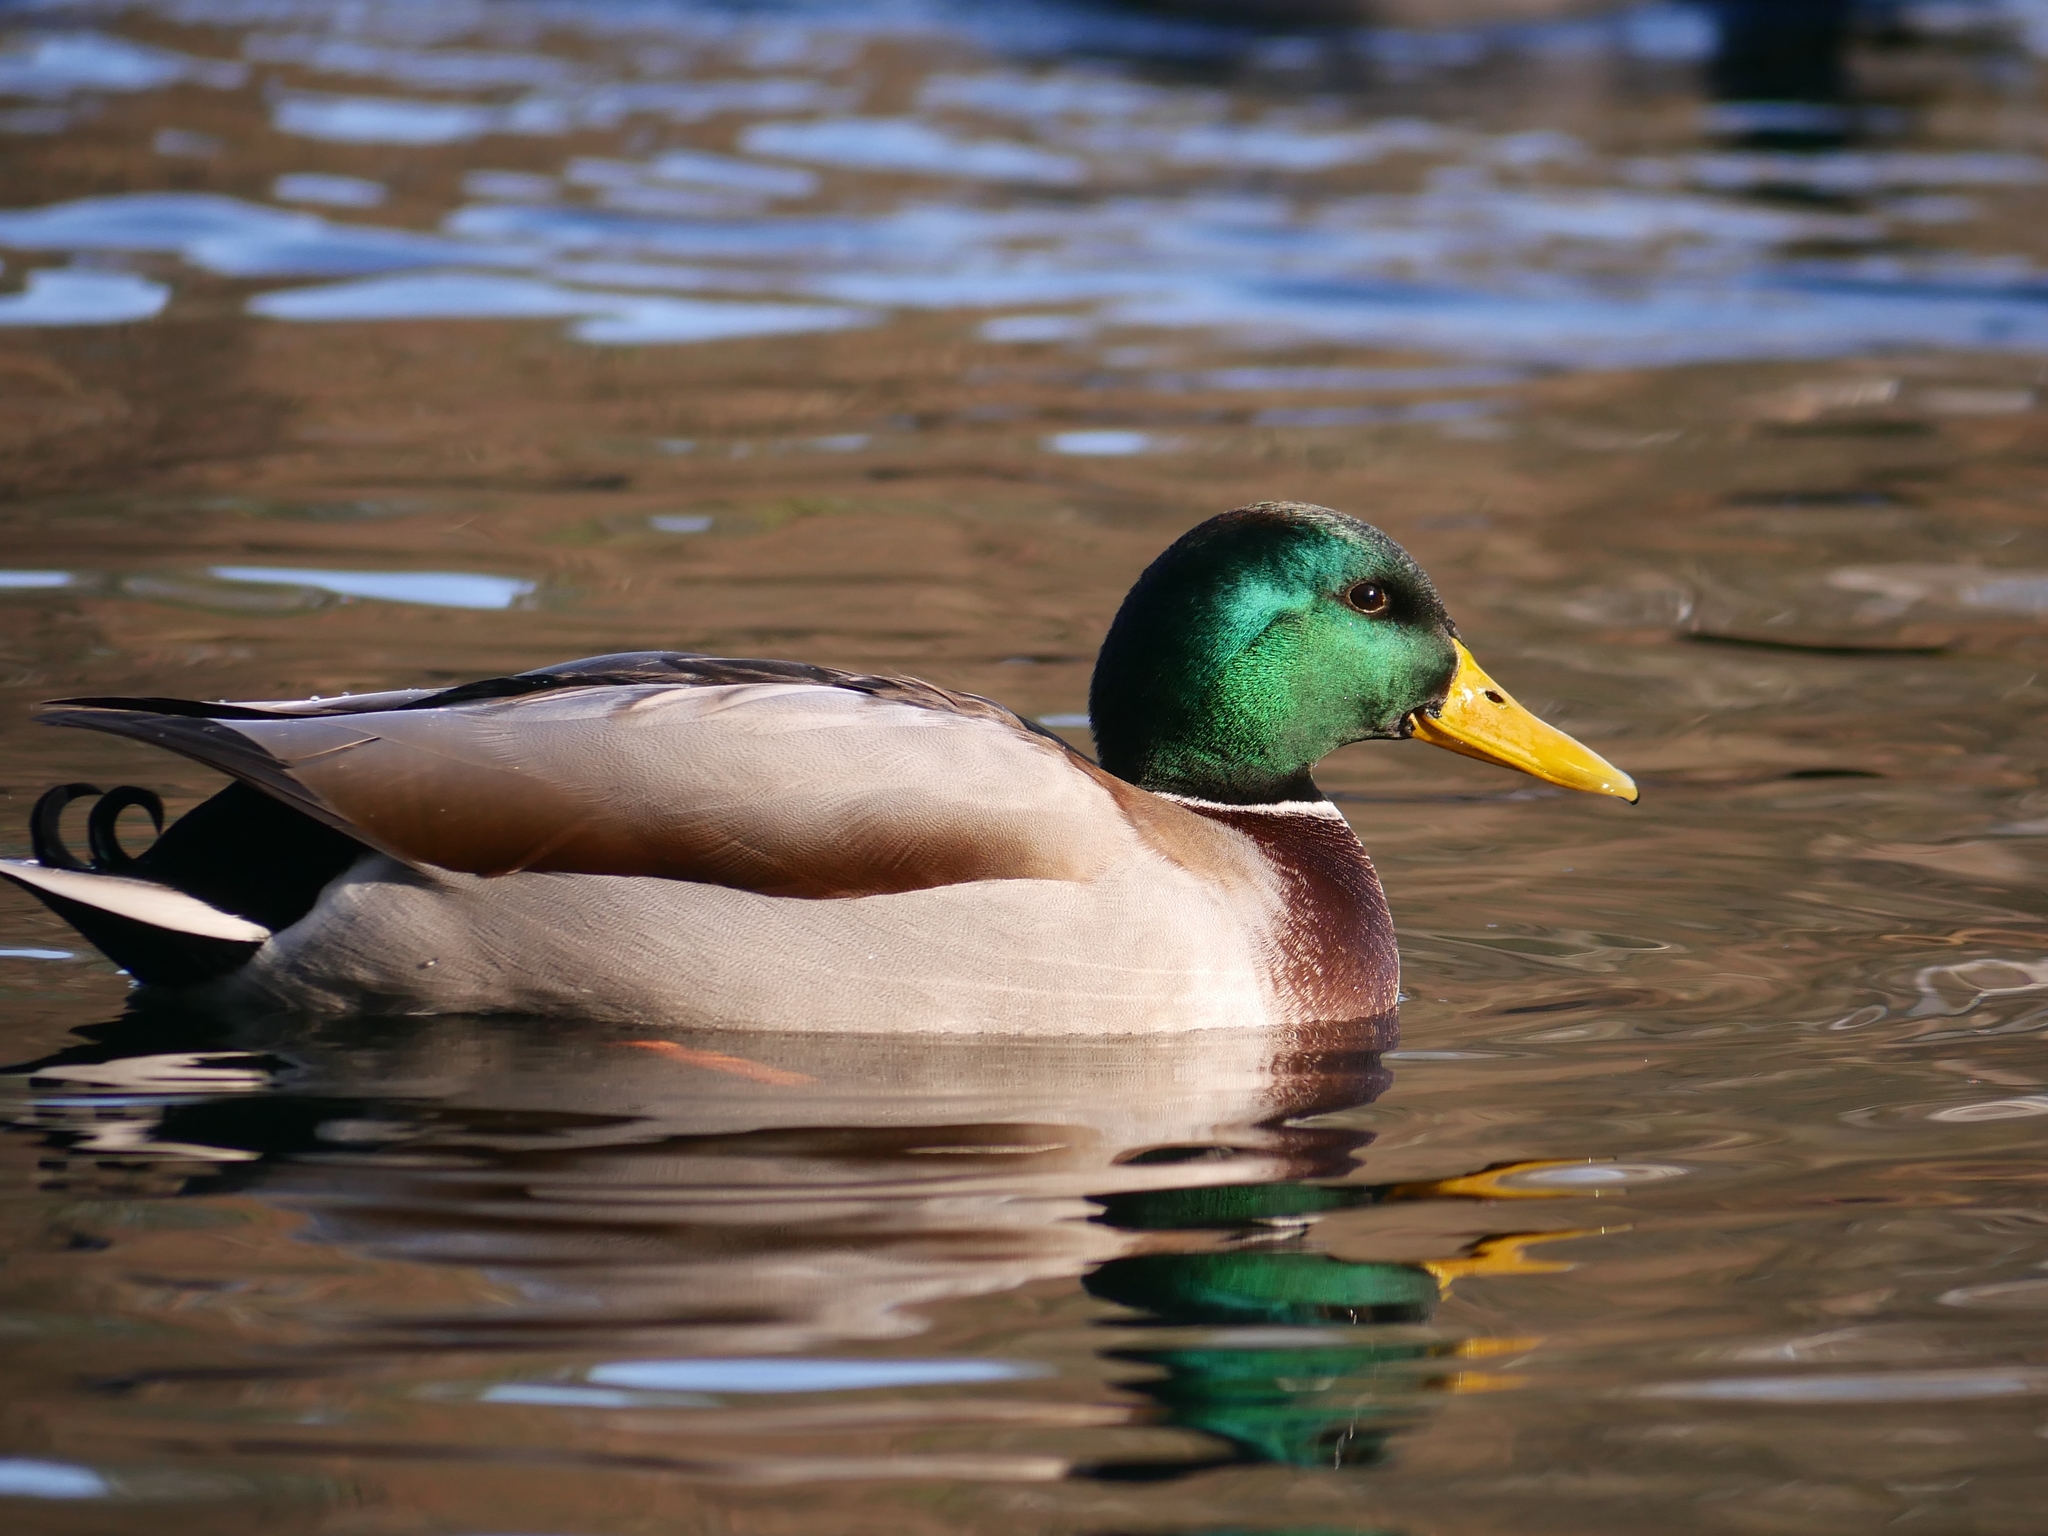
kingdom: Animalia
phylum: Chordata
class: Aves
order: Anseriformes
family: Anatidae
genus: Anas
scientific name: Anas platyrhynchos
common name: Mallard
